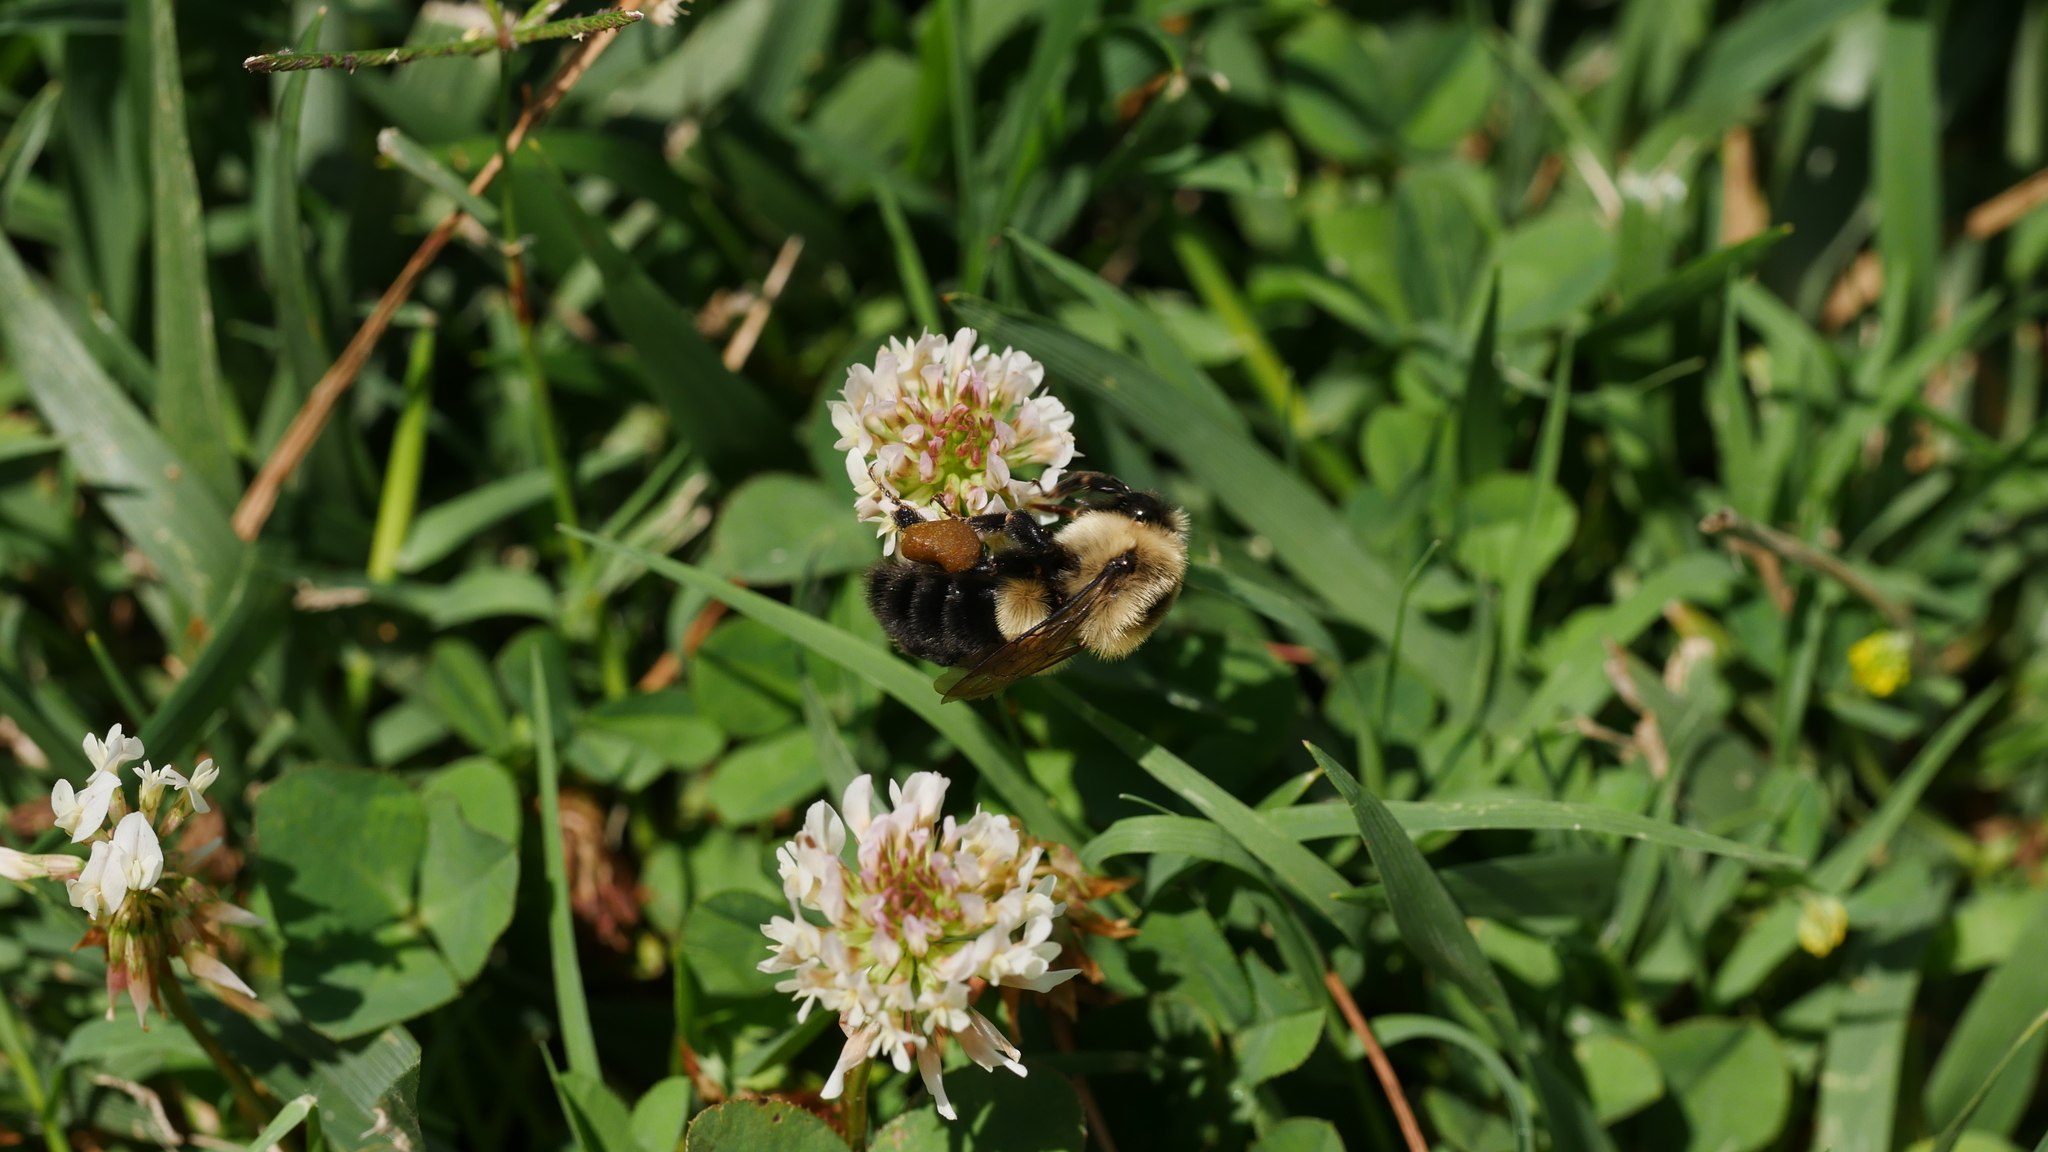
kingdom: Animalia
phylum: Arthropoda
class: Insecta
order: Hymenoptera
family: Apidae
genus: Bombus
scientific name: Bombus impatiens
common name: Common eastern bumble bee
